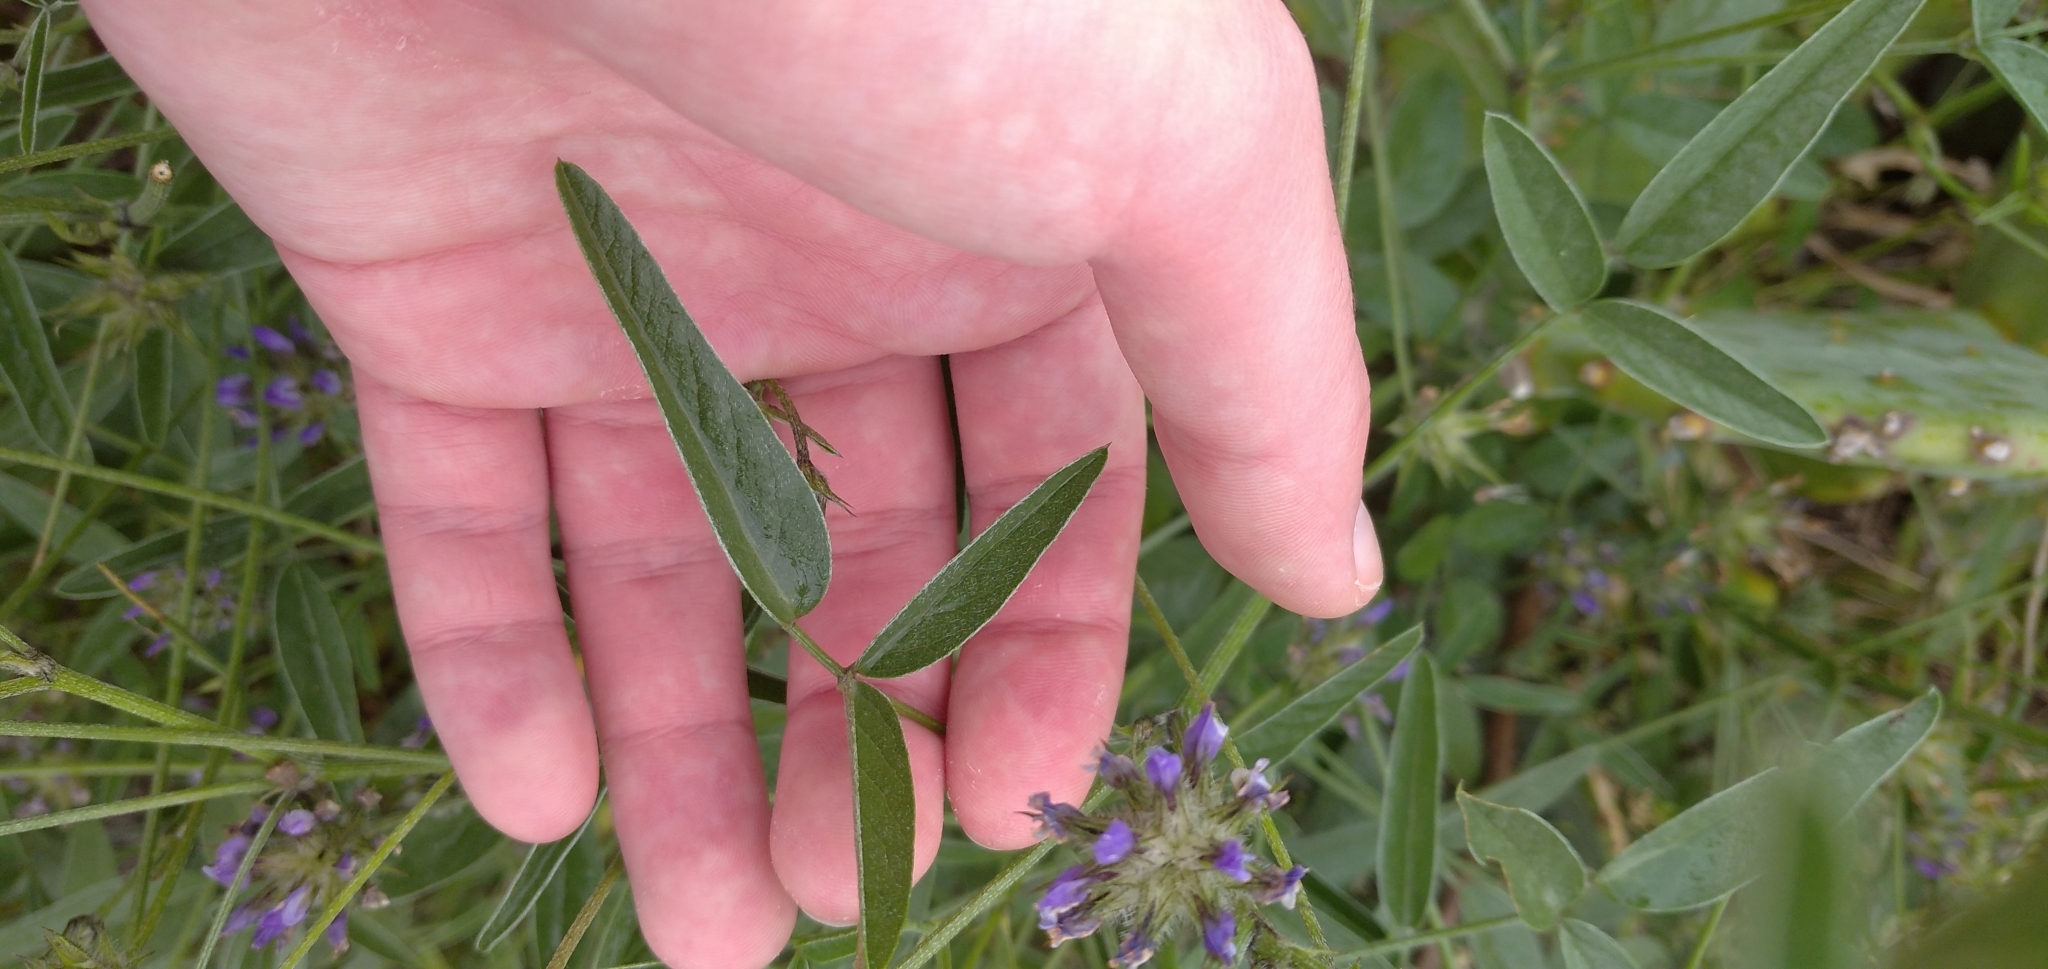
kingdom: Plantae
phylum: Tracheophyta
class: Magnoliopsida
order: Fabales
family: Fabaceae
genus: Bituminaria
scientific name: Bituminaria bituminosa
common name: Arabian pea
